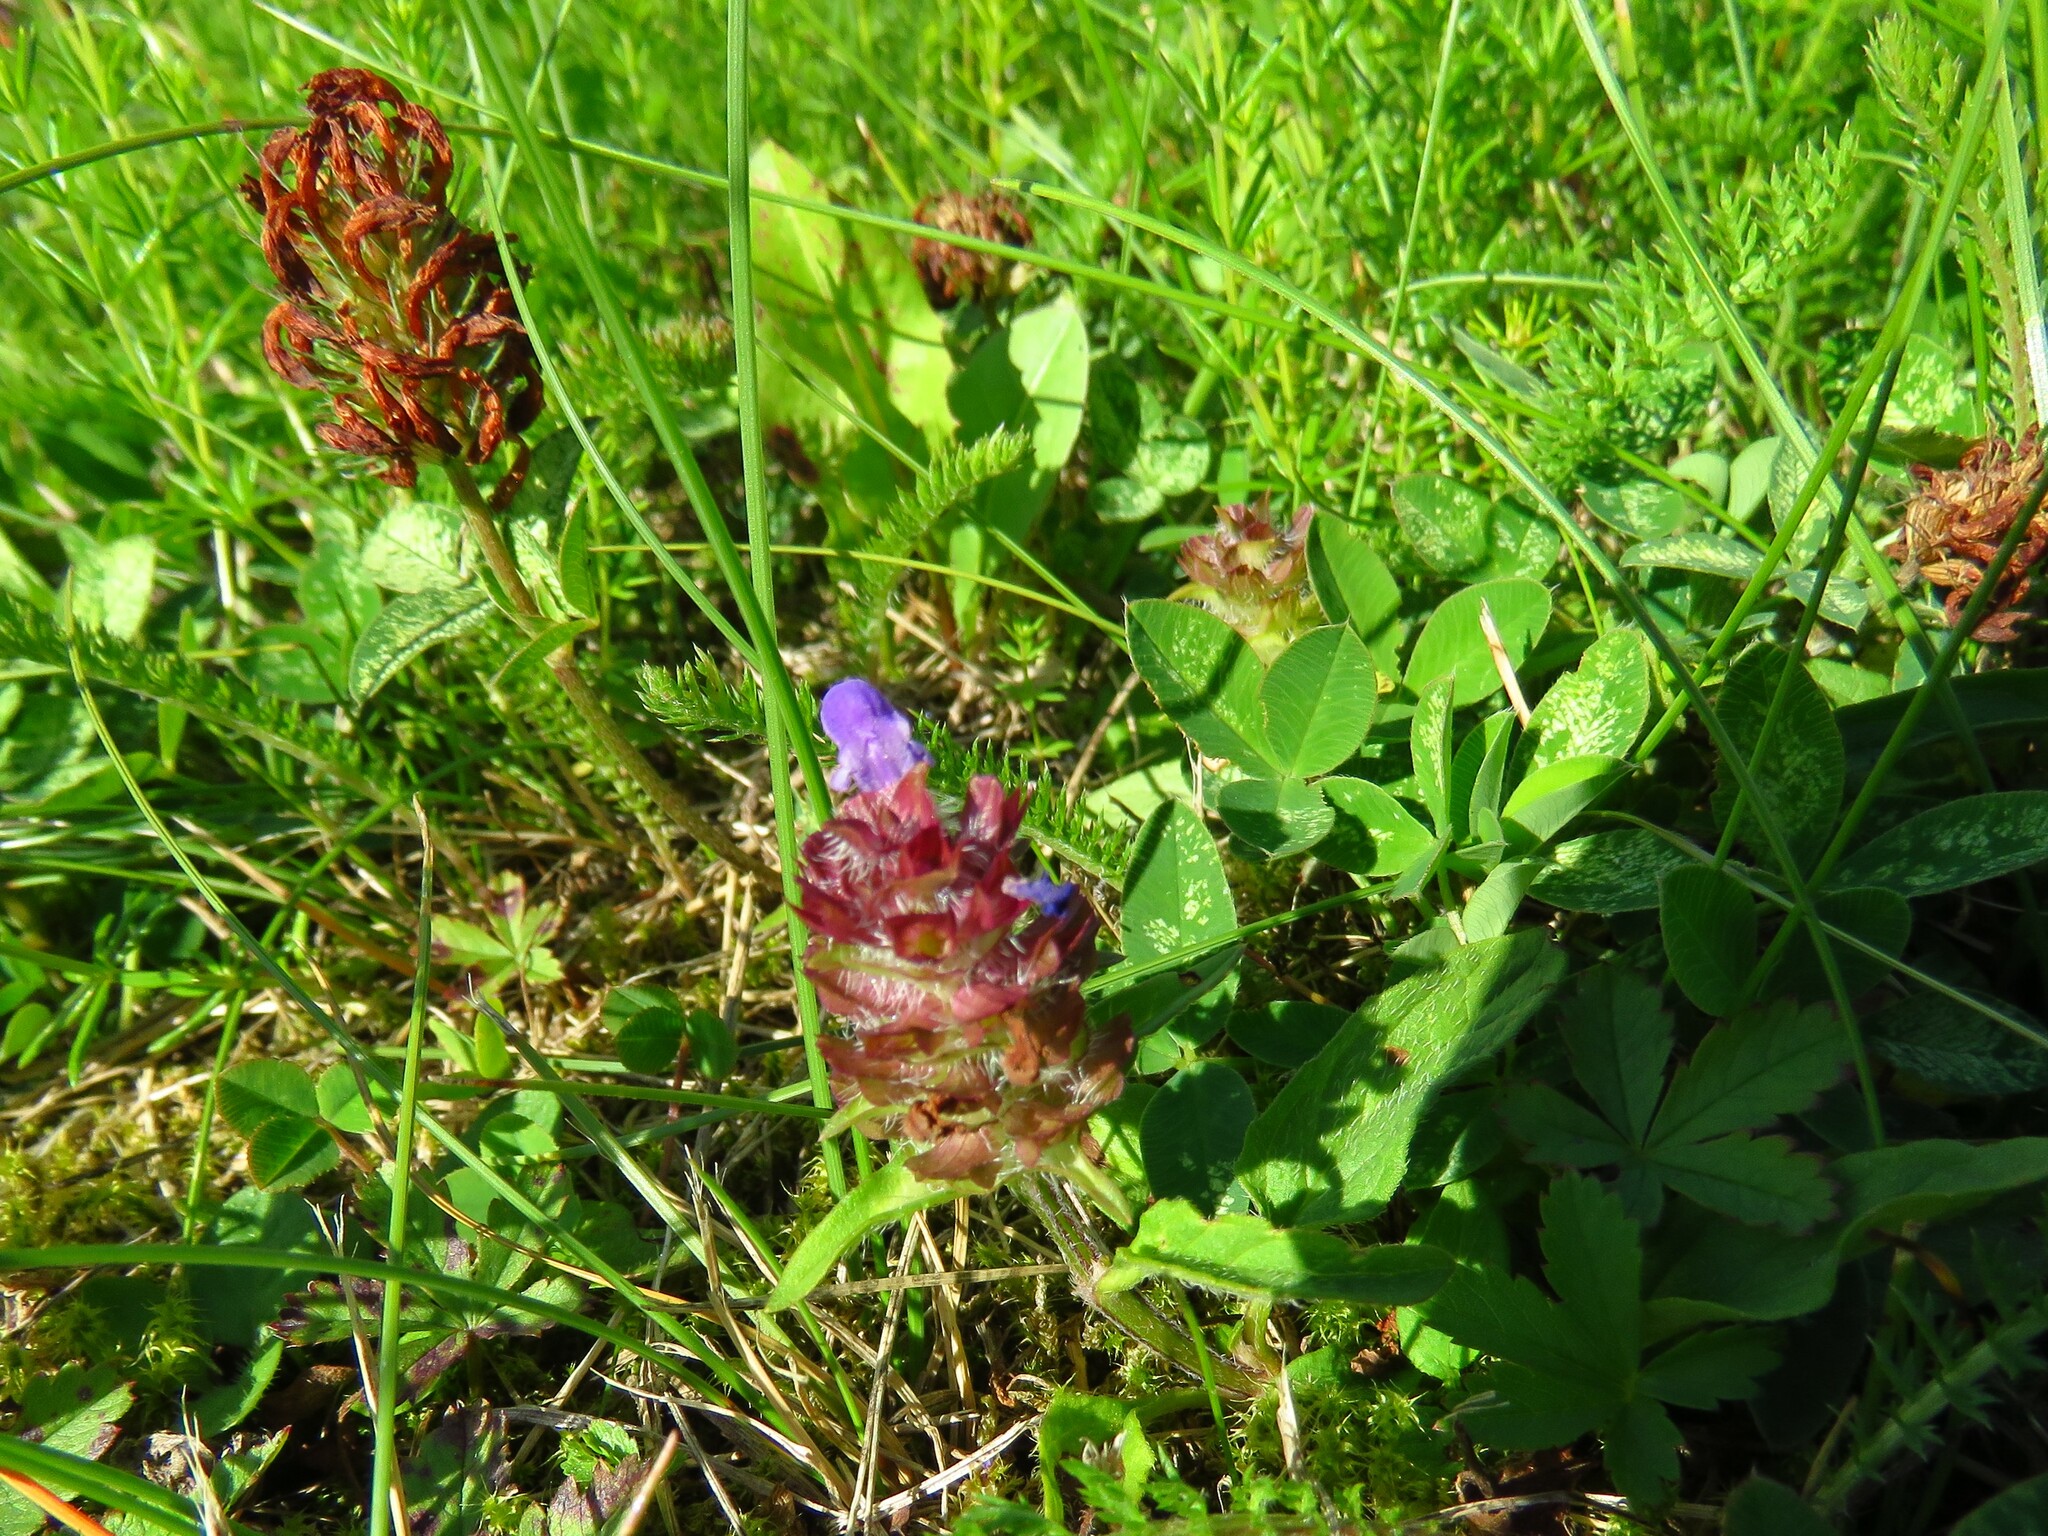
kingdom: Plantae
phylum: Tracheophyta
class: Magnoliopsida
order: Lamiales
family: Lamiaceae
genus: Prunella
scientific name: Prunella vulgaris
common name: Heal-all
